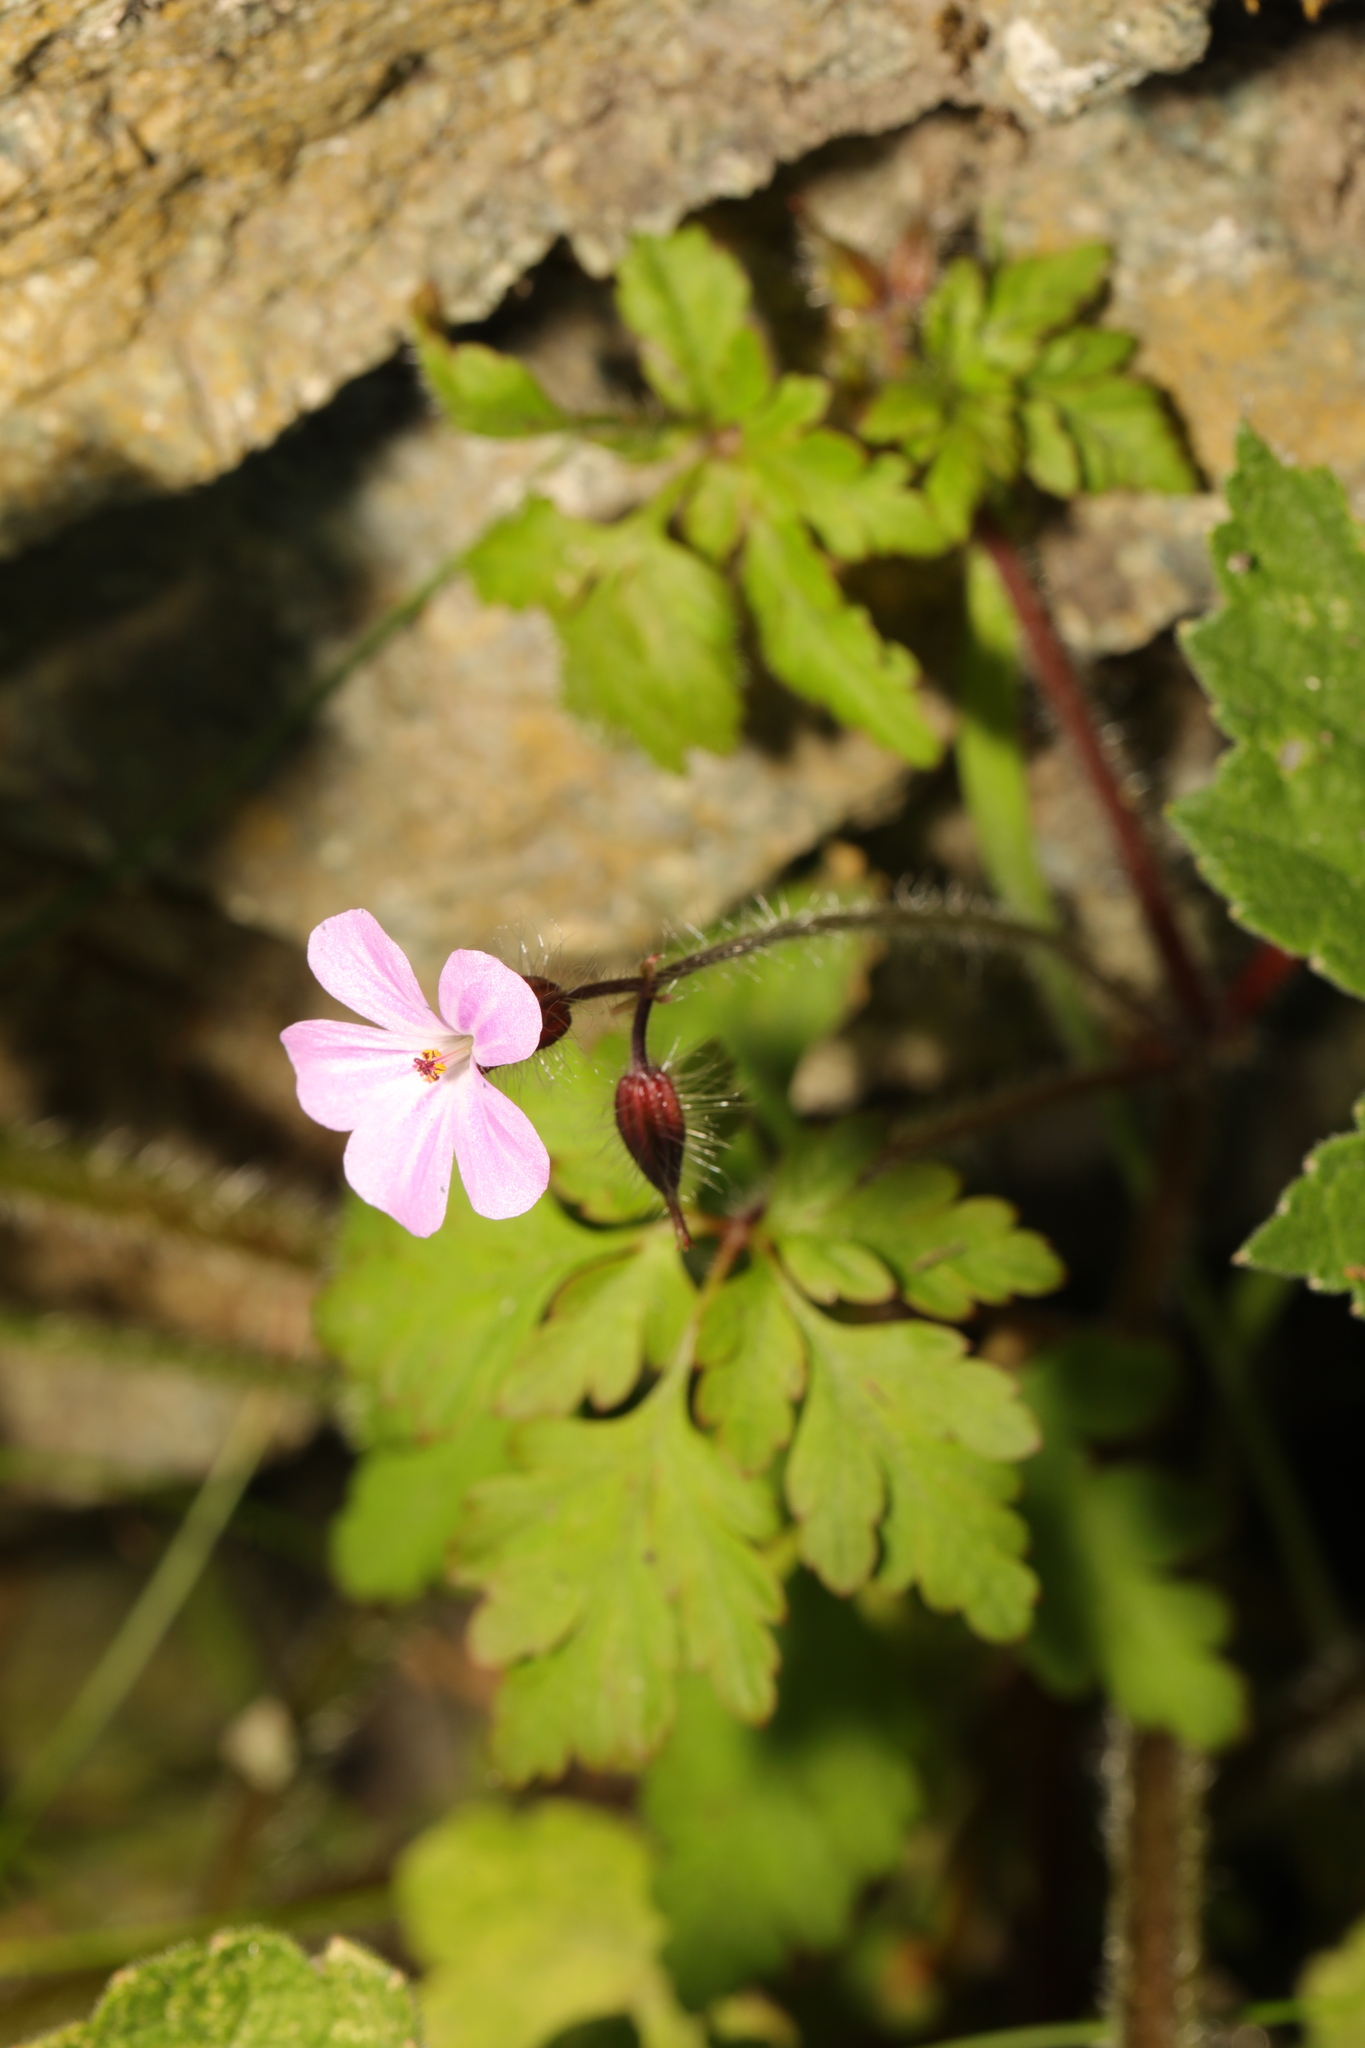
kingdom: Plantae
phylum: Tracheophyta
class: Magnoliopsida
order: Geraniales
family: Geraniaceae
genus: Geranium
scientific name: Geranium robertianum
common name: Herb-robert
